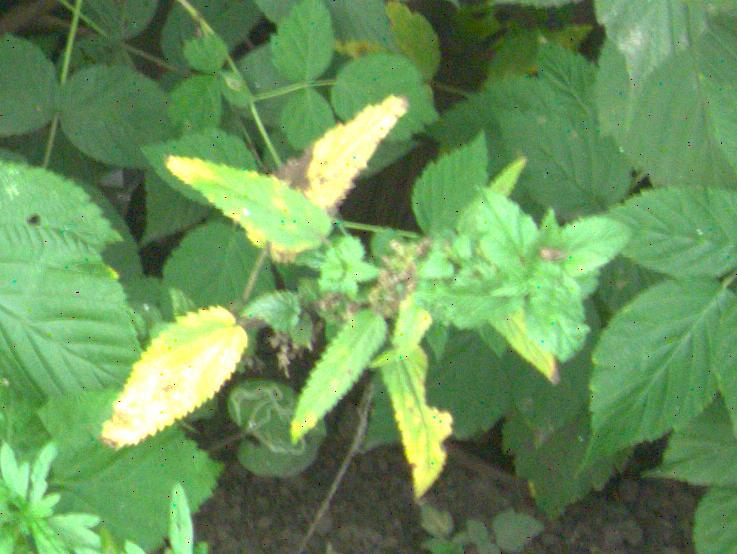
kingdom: Plantae
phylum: Tracheophyta
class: Magnoliopsida
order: Rosales
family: Urticaceae
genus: Urtica
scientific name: Urtica dioica
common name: Common nettle
